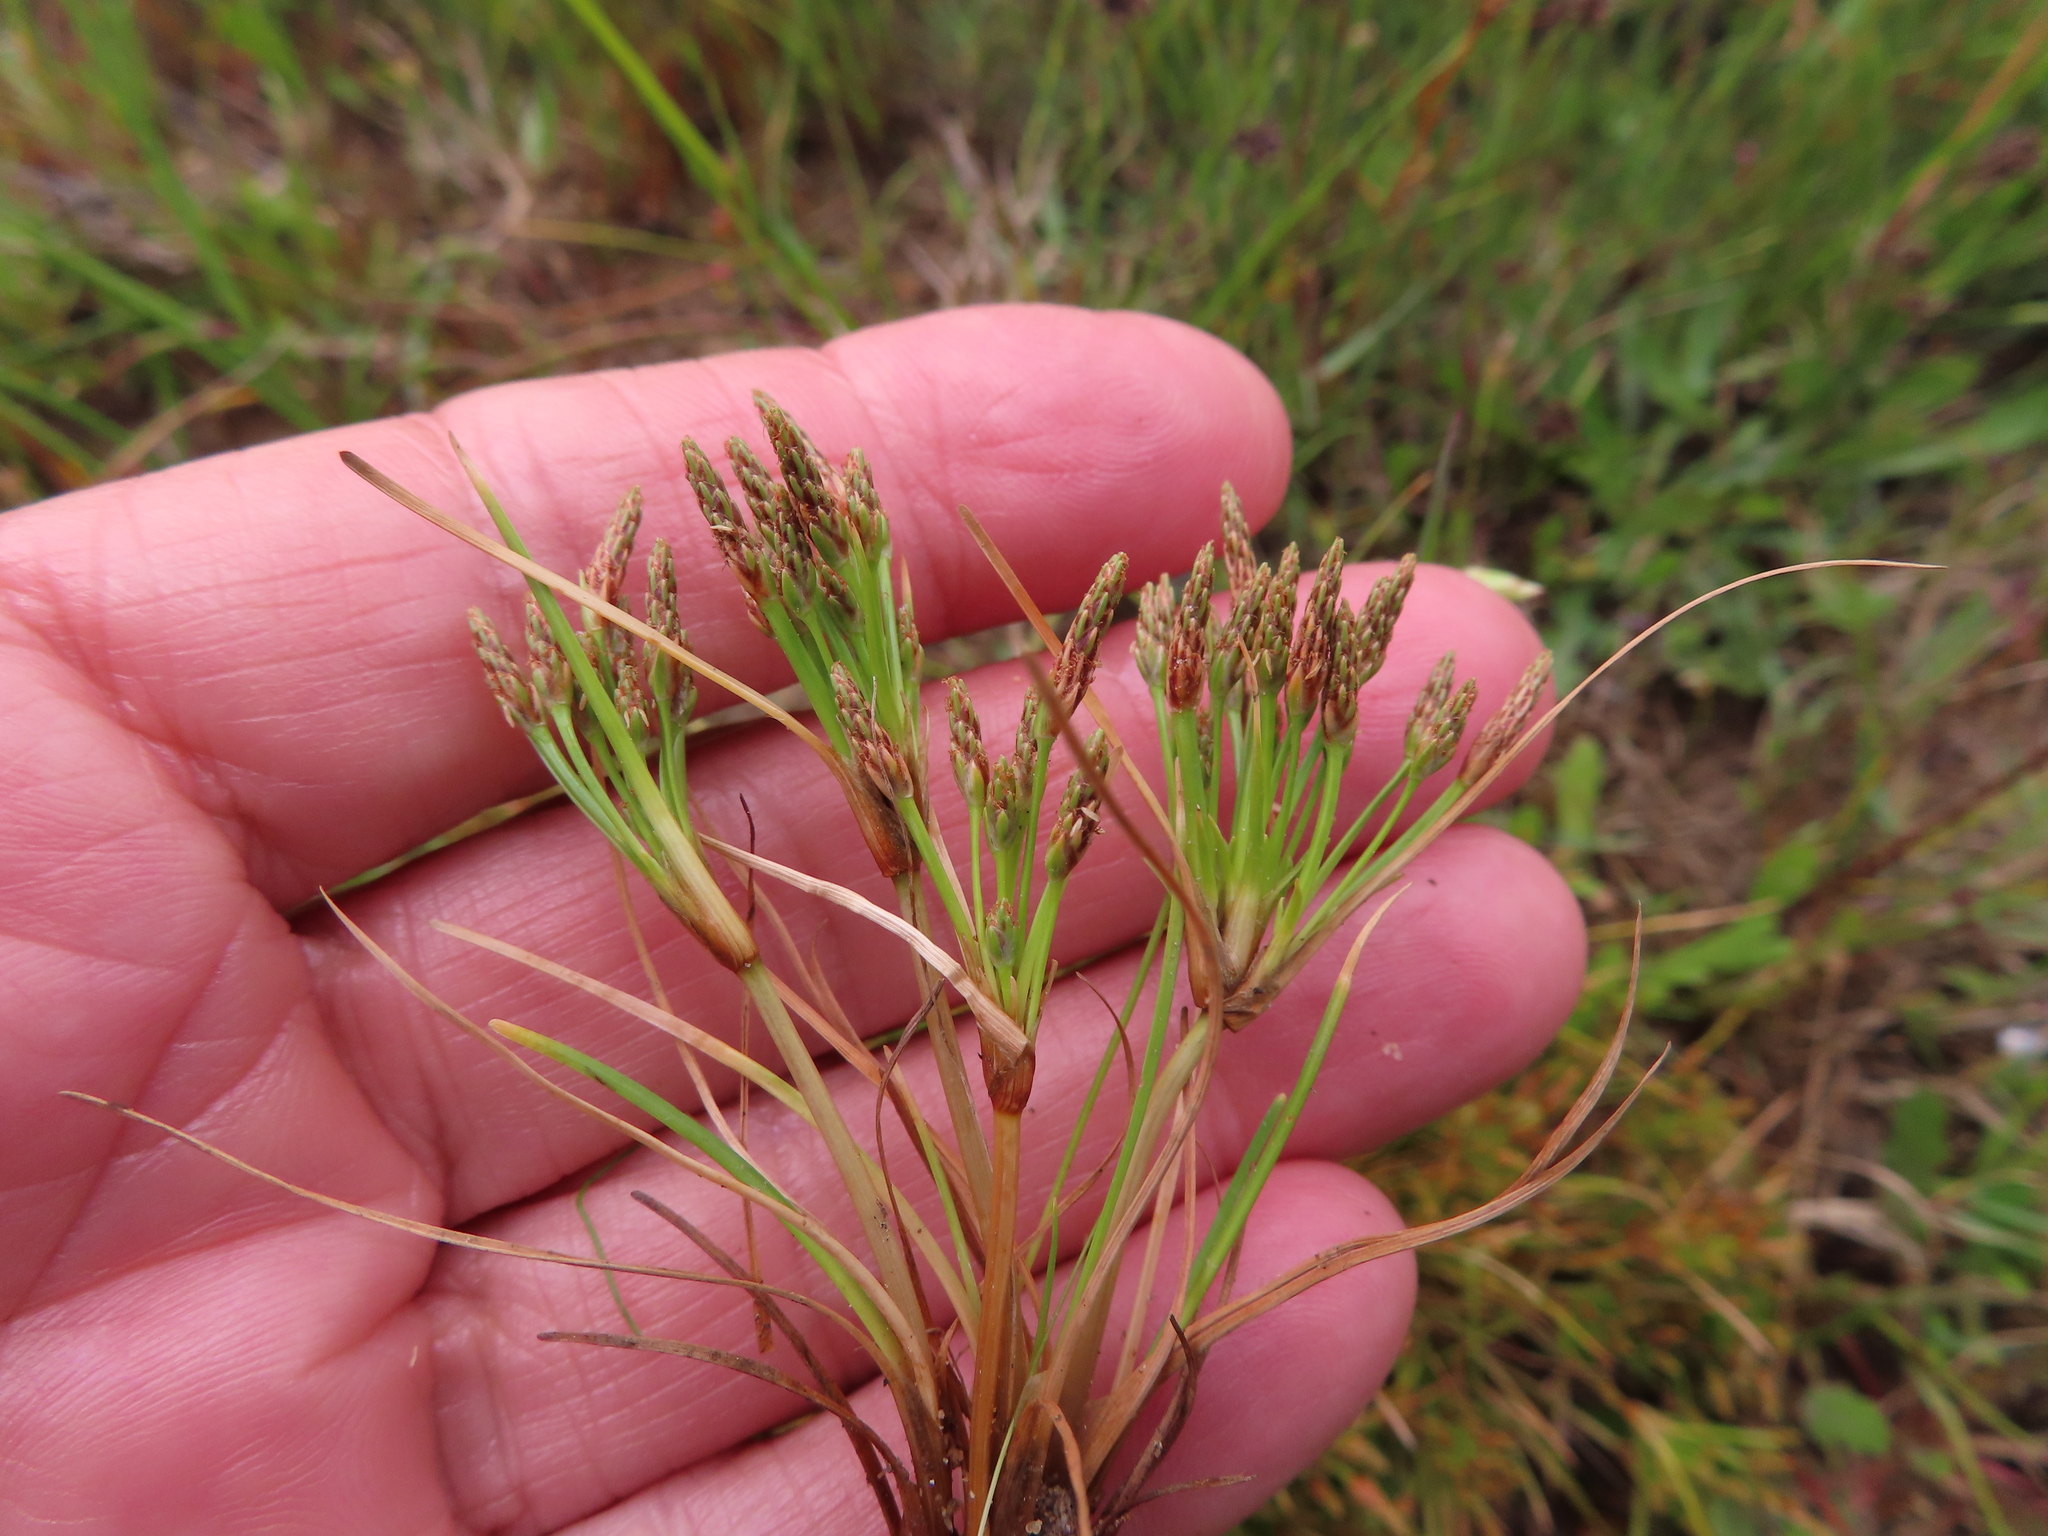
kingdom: Plantae
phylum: Tracheophyta
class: Liliopsida
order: Poales
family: Cyperaceae
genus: Isolepis
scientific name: Isolepis ludwigii
